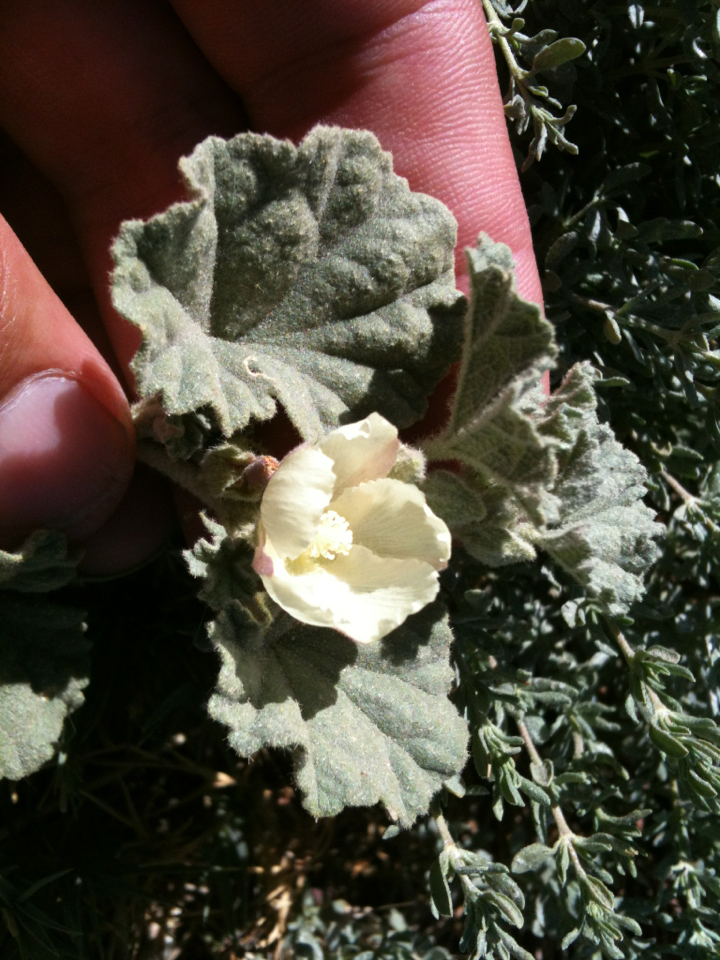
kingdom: Plantae
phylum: Tracheophyta
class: Magnoliopsida
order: Malvales
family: Malvaceae
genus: Malvella
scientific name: Malvella leprosa
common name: Alkali-mallow
